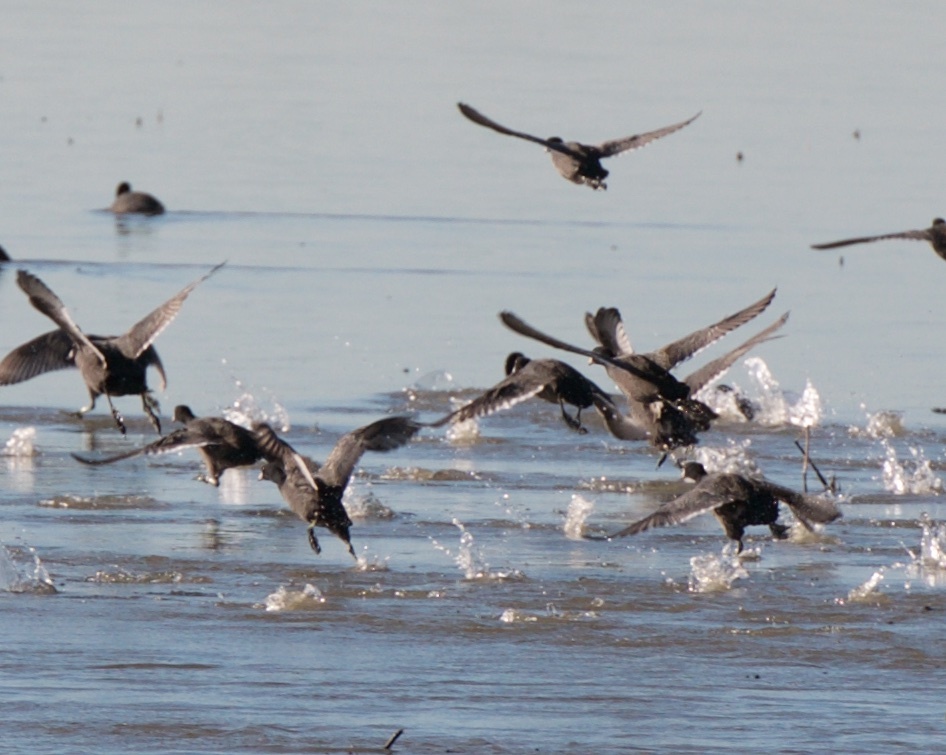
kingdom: Animalia
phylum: Chordata
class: Aves
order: Gruiformes
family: Rallidae
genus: Fulica
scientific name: Fulica americana
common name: American coot
